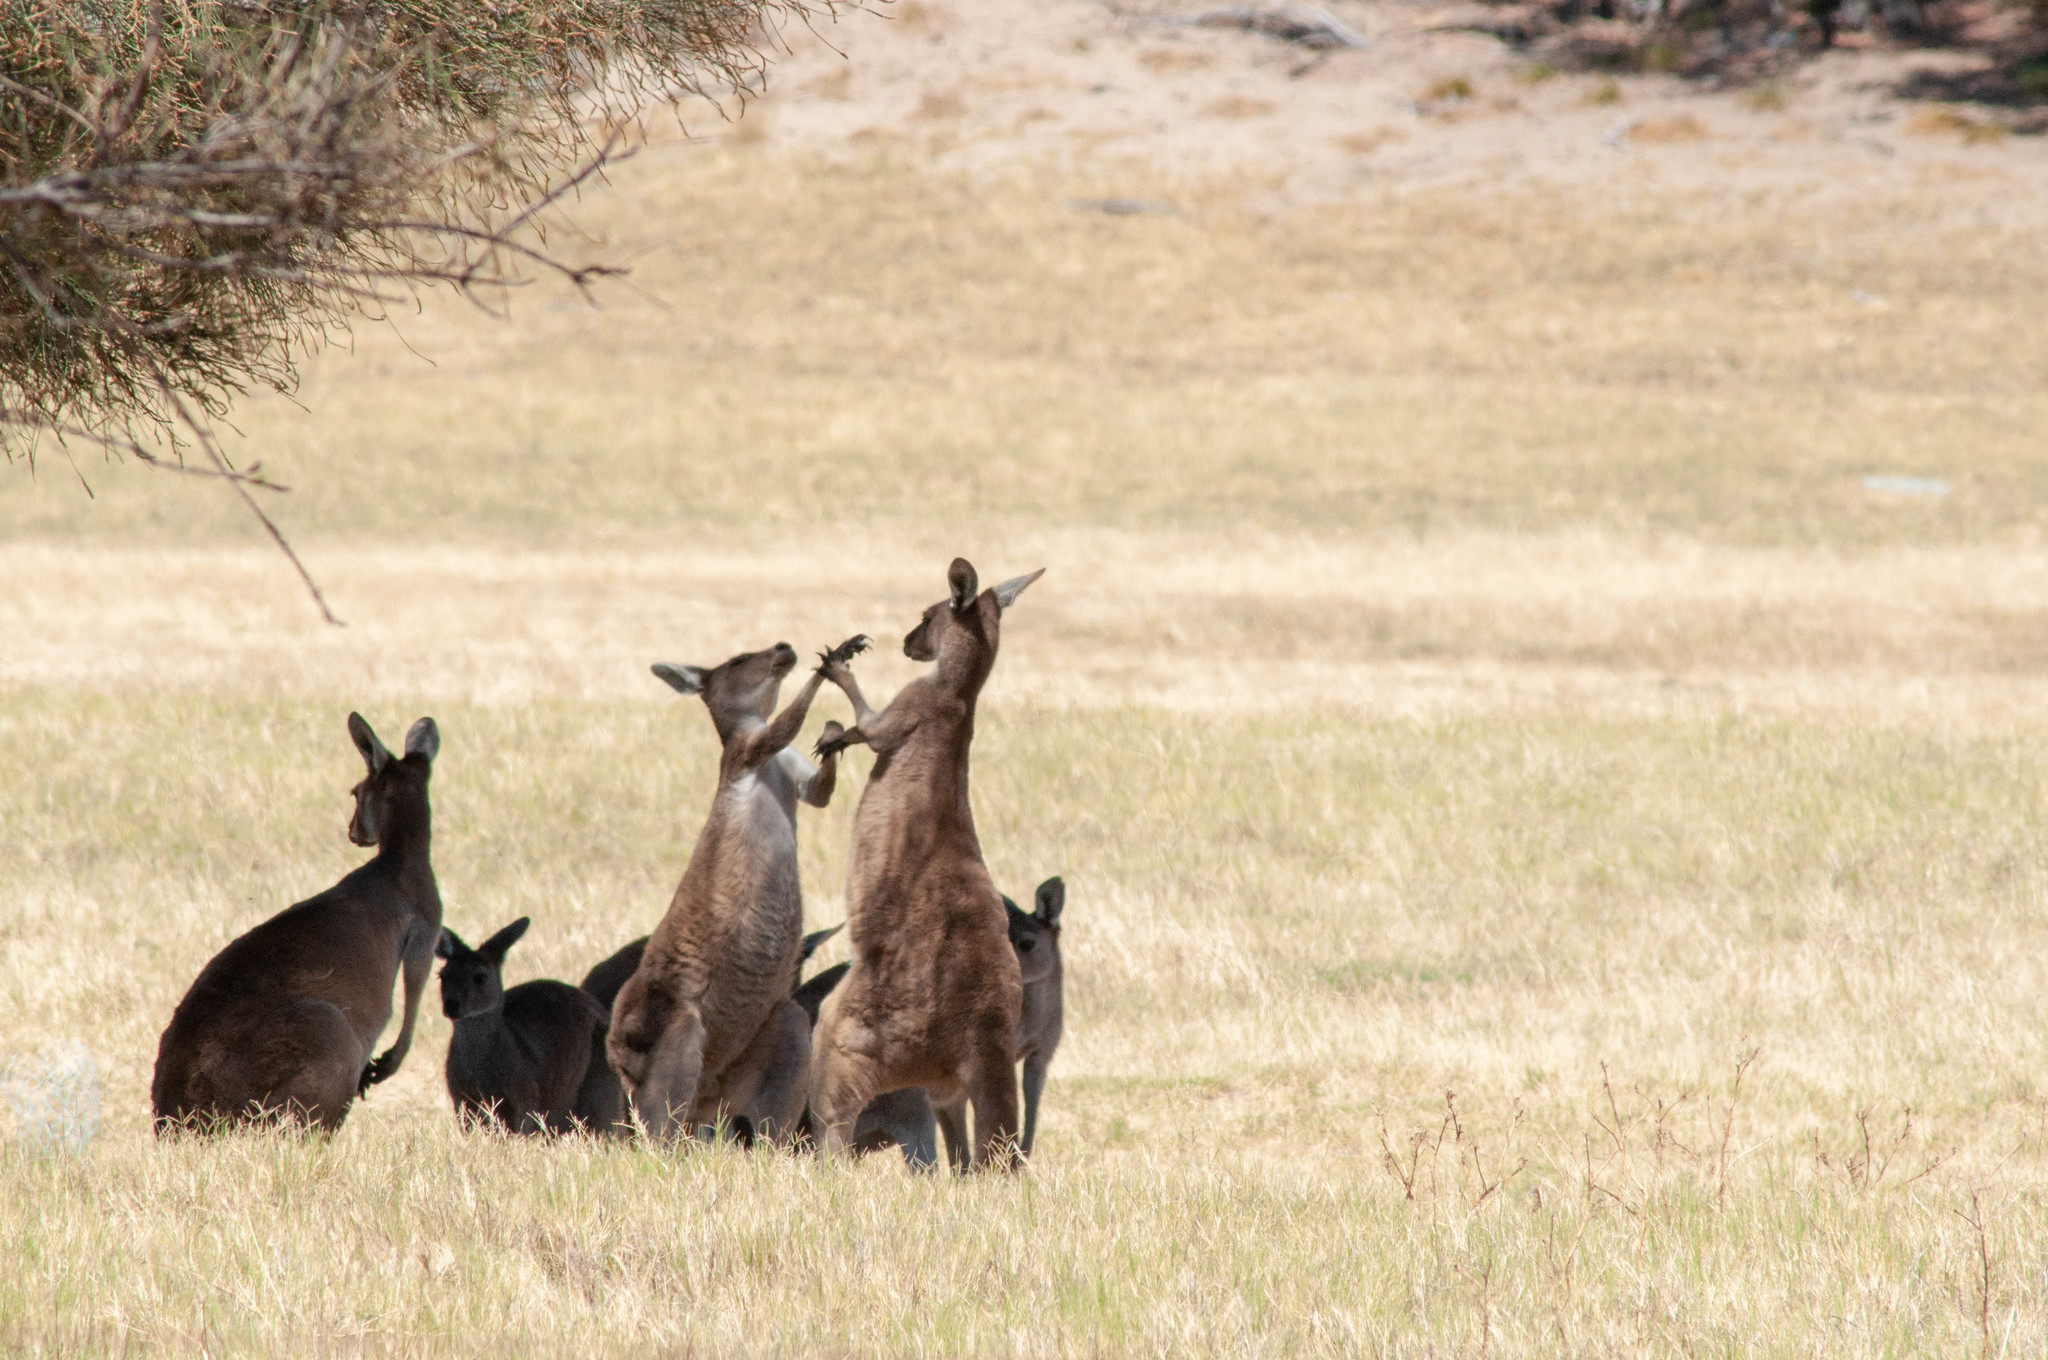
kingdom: Animalia
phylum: Chordata
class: Mammalia
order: Diprotodontia
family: Macropodidae
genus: Macropus
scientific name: Macropus fuliginosus
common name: Western grey kangaroo
